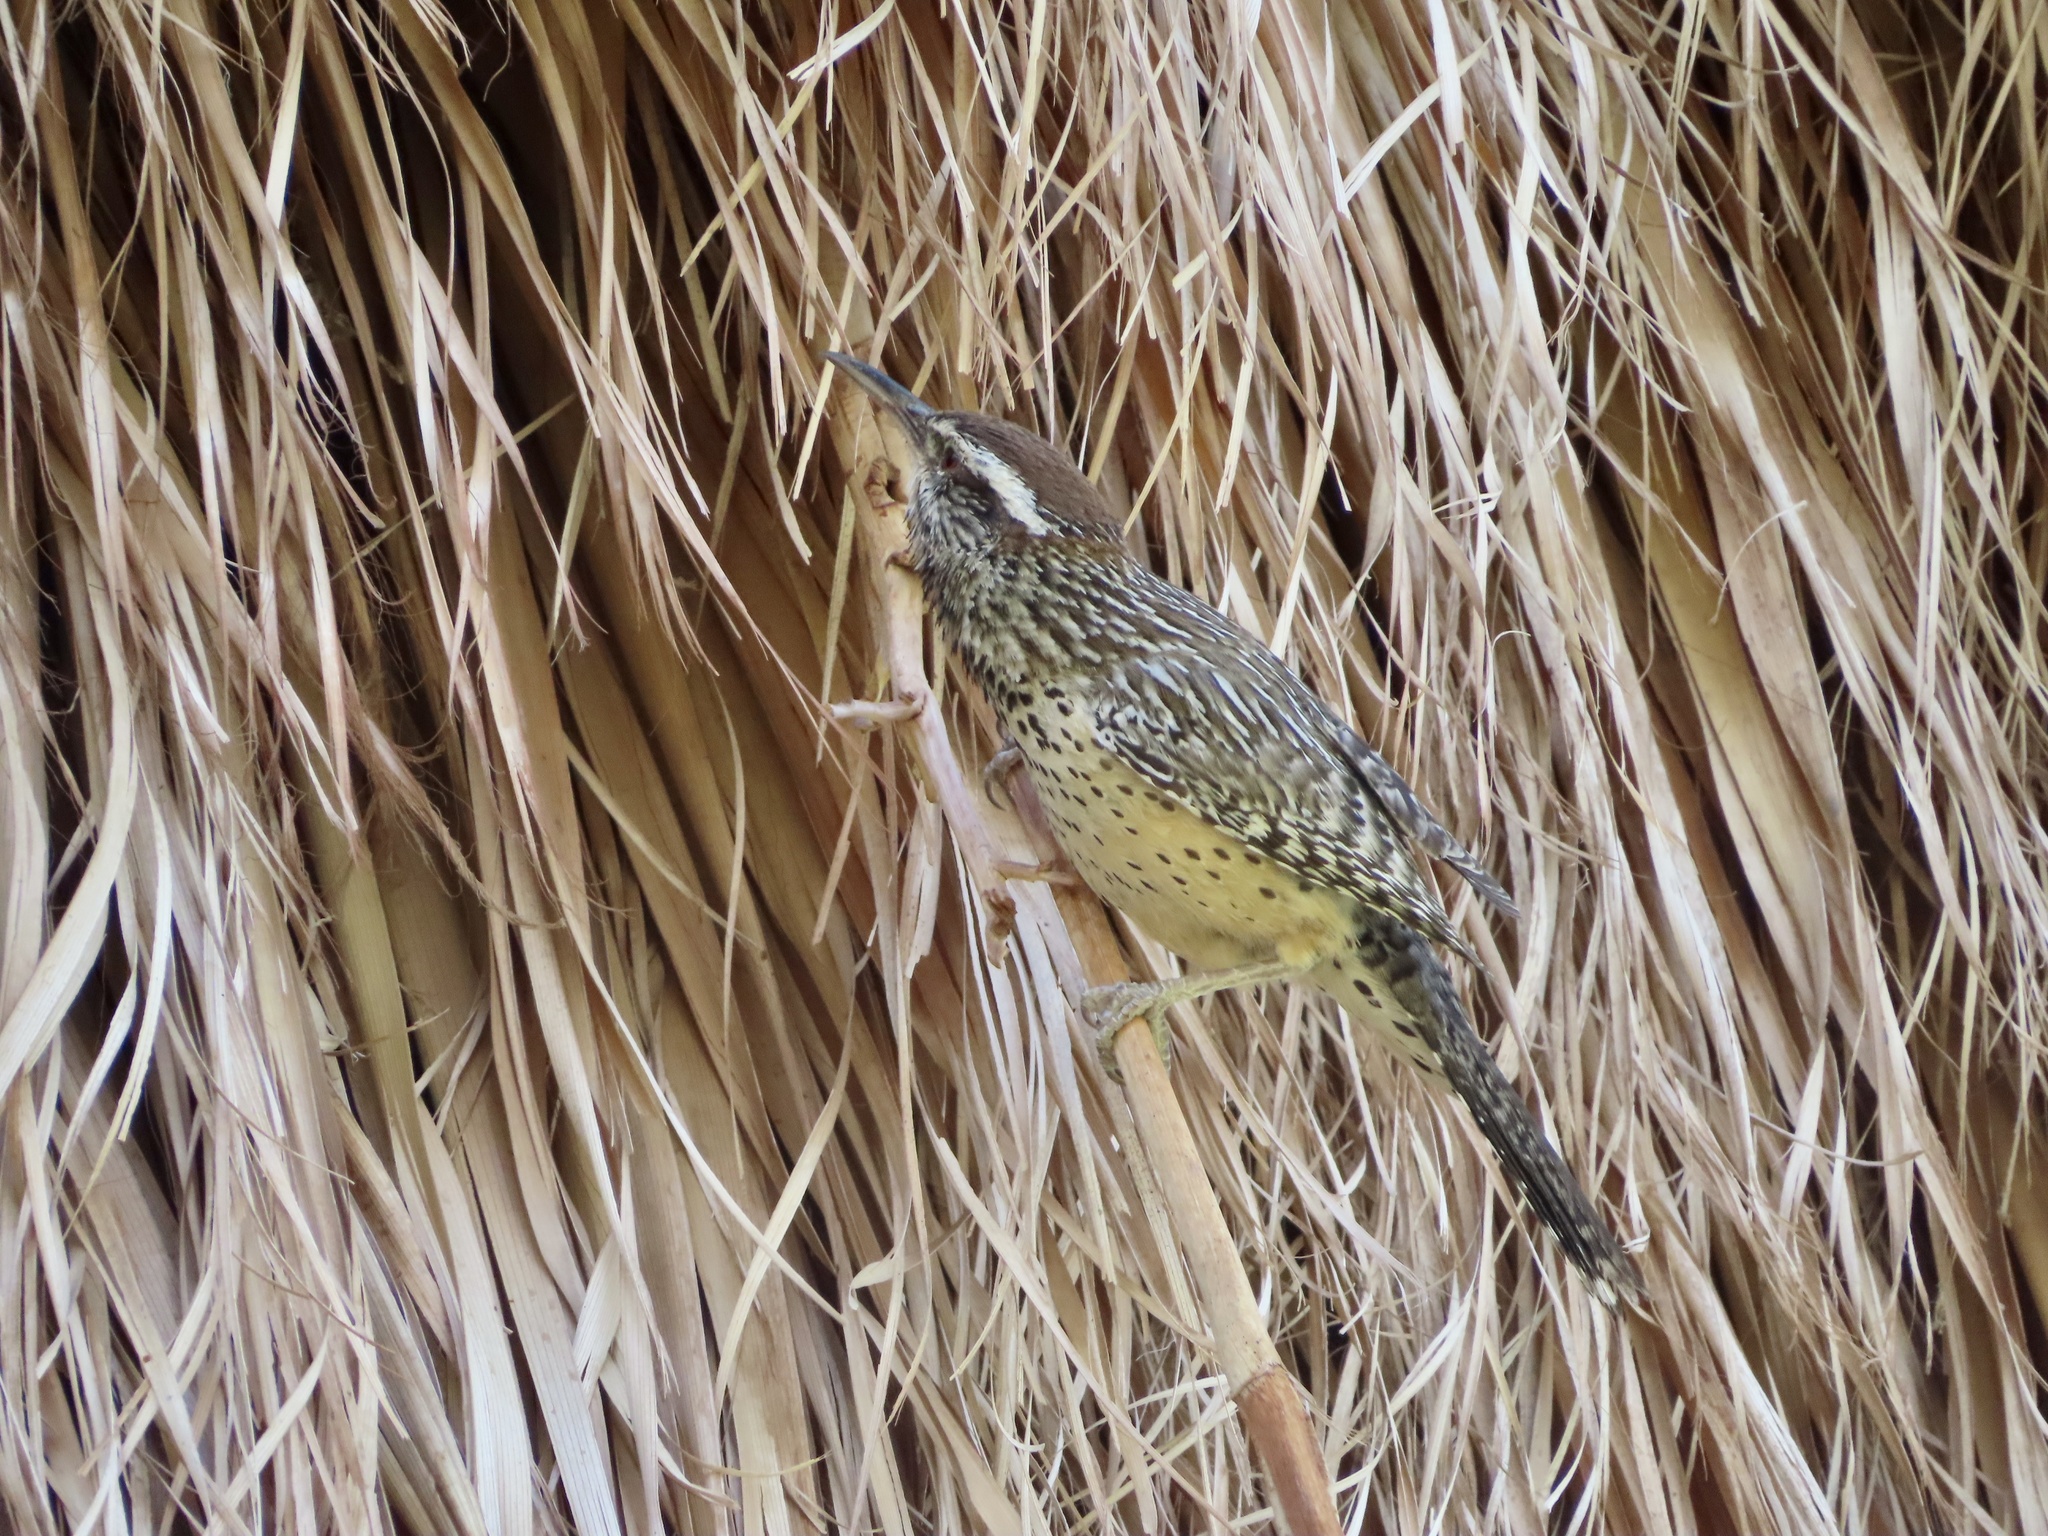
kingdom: Animalia
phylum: Chordata
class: Aves
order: Passeriformes
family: Troglodytidae
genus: Campylorhynchus
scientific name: Campylorhynchus brunneicapillus
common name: Cactus wren
